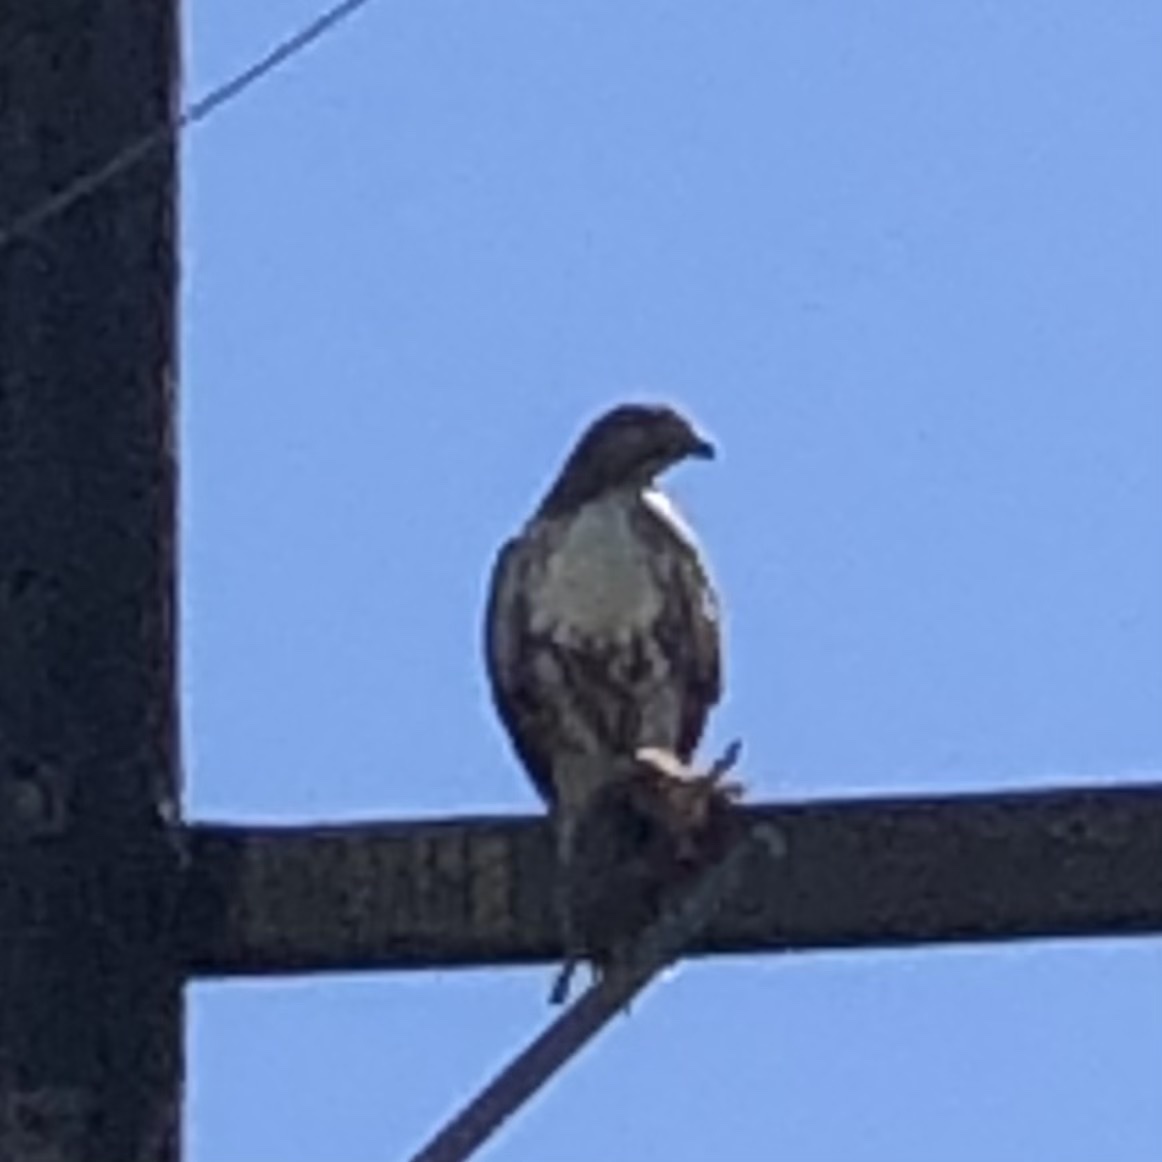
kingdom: Animalia
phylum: Chordata
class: Aves
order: Accipitriformes
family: Accipitridae
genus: Buteo
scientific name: Buteo jamaicensis
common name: Red-tailed hawk
